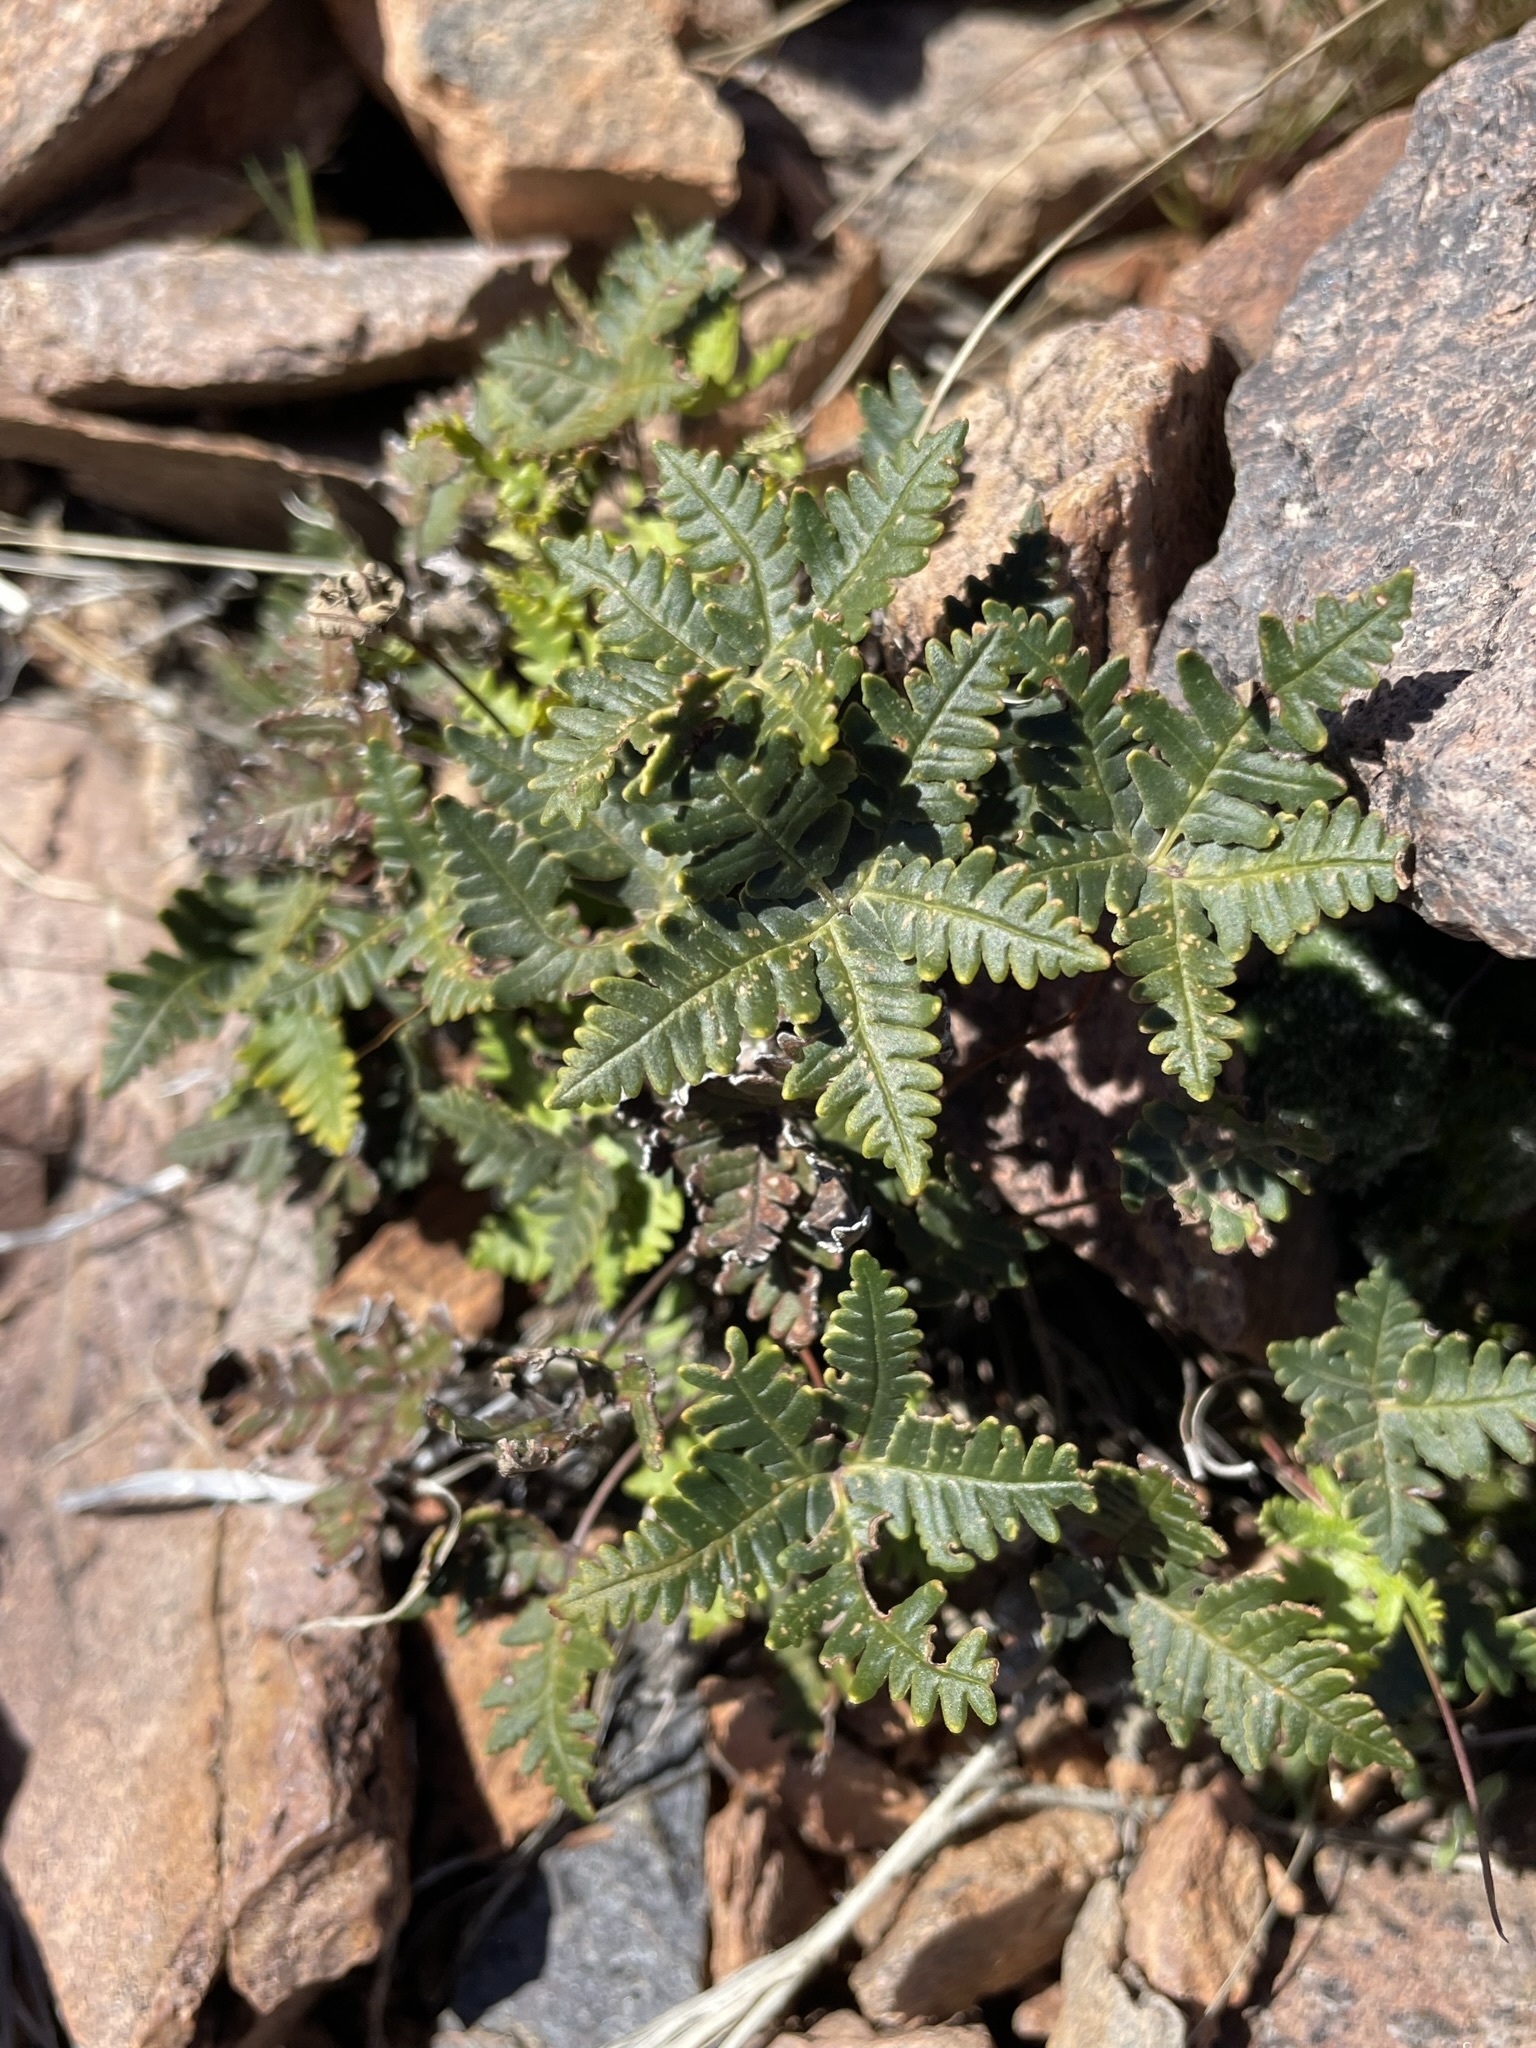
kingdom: Plantae
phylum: Tracheophyta
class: Polypodiopsida
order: Polypodiales
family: Pteridaceae
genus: Notholaena
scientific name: Notholaena standleyi
